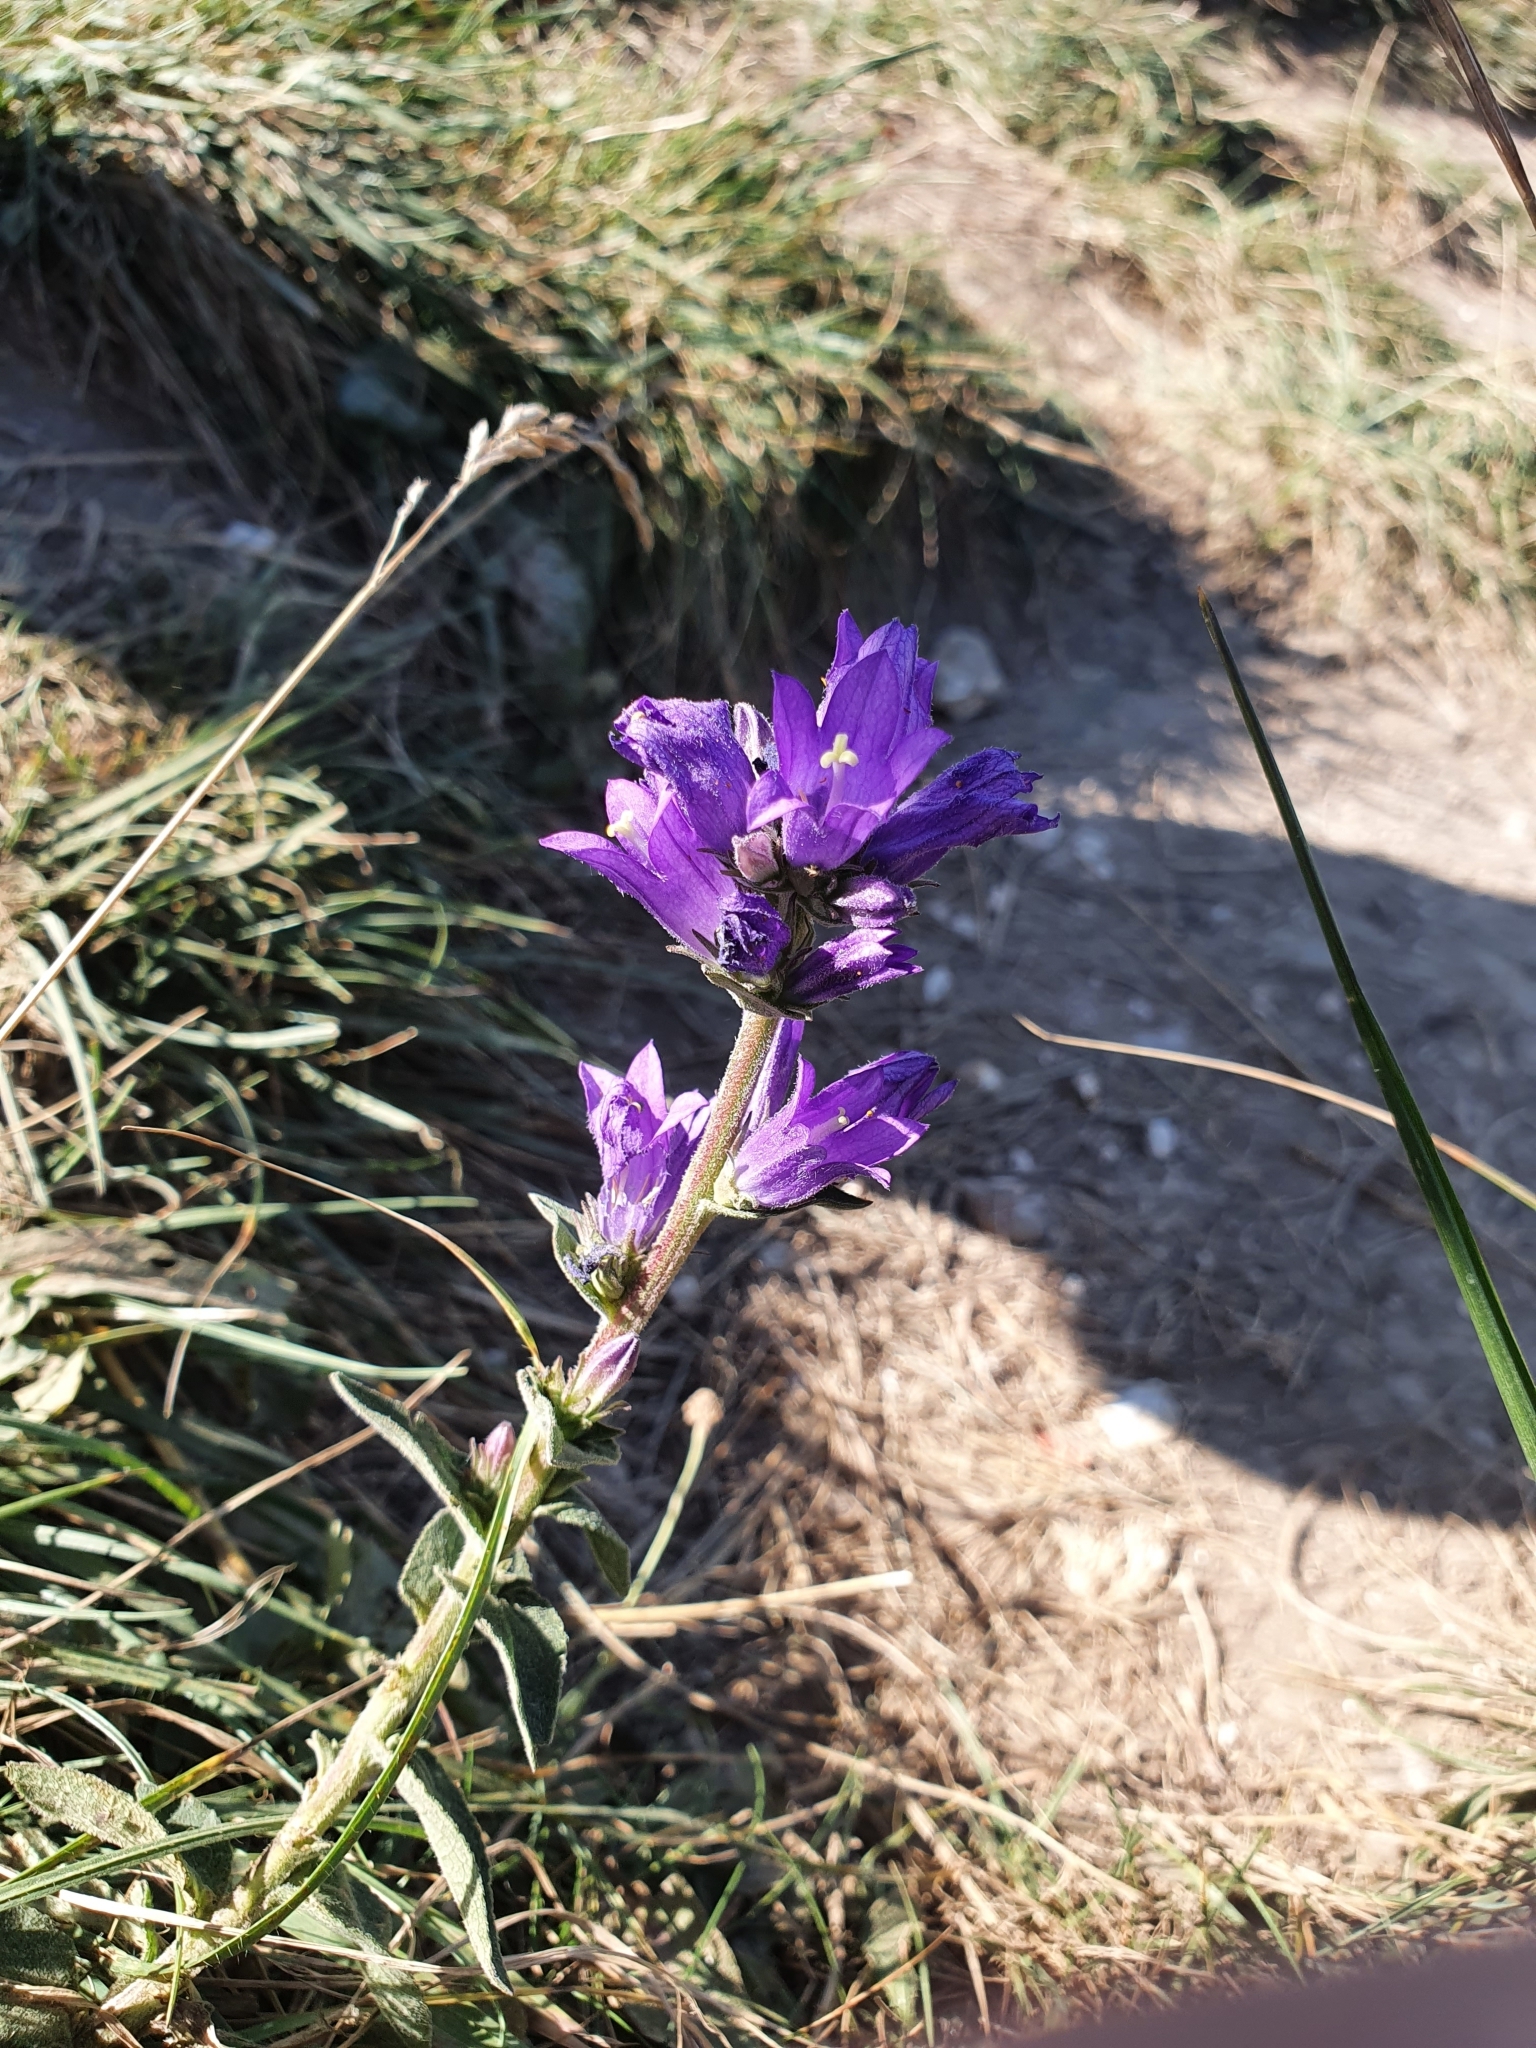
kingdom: Plantae
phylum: Tracheophyta
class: Magnoliopsida
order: Asterales
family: Campanulaceae
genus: Campanula
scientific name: Campanula glomerata
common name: Clustered bellflower
